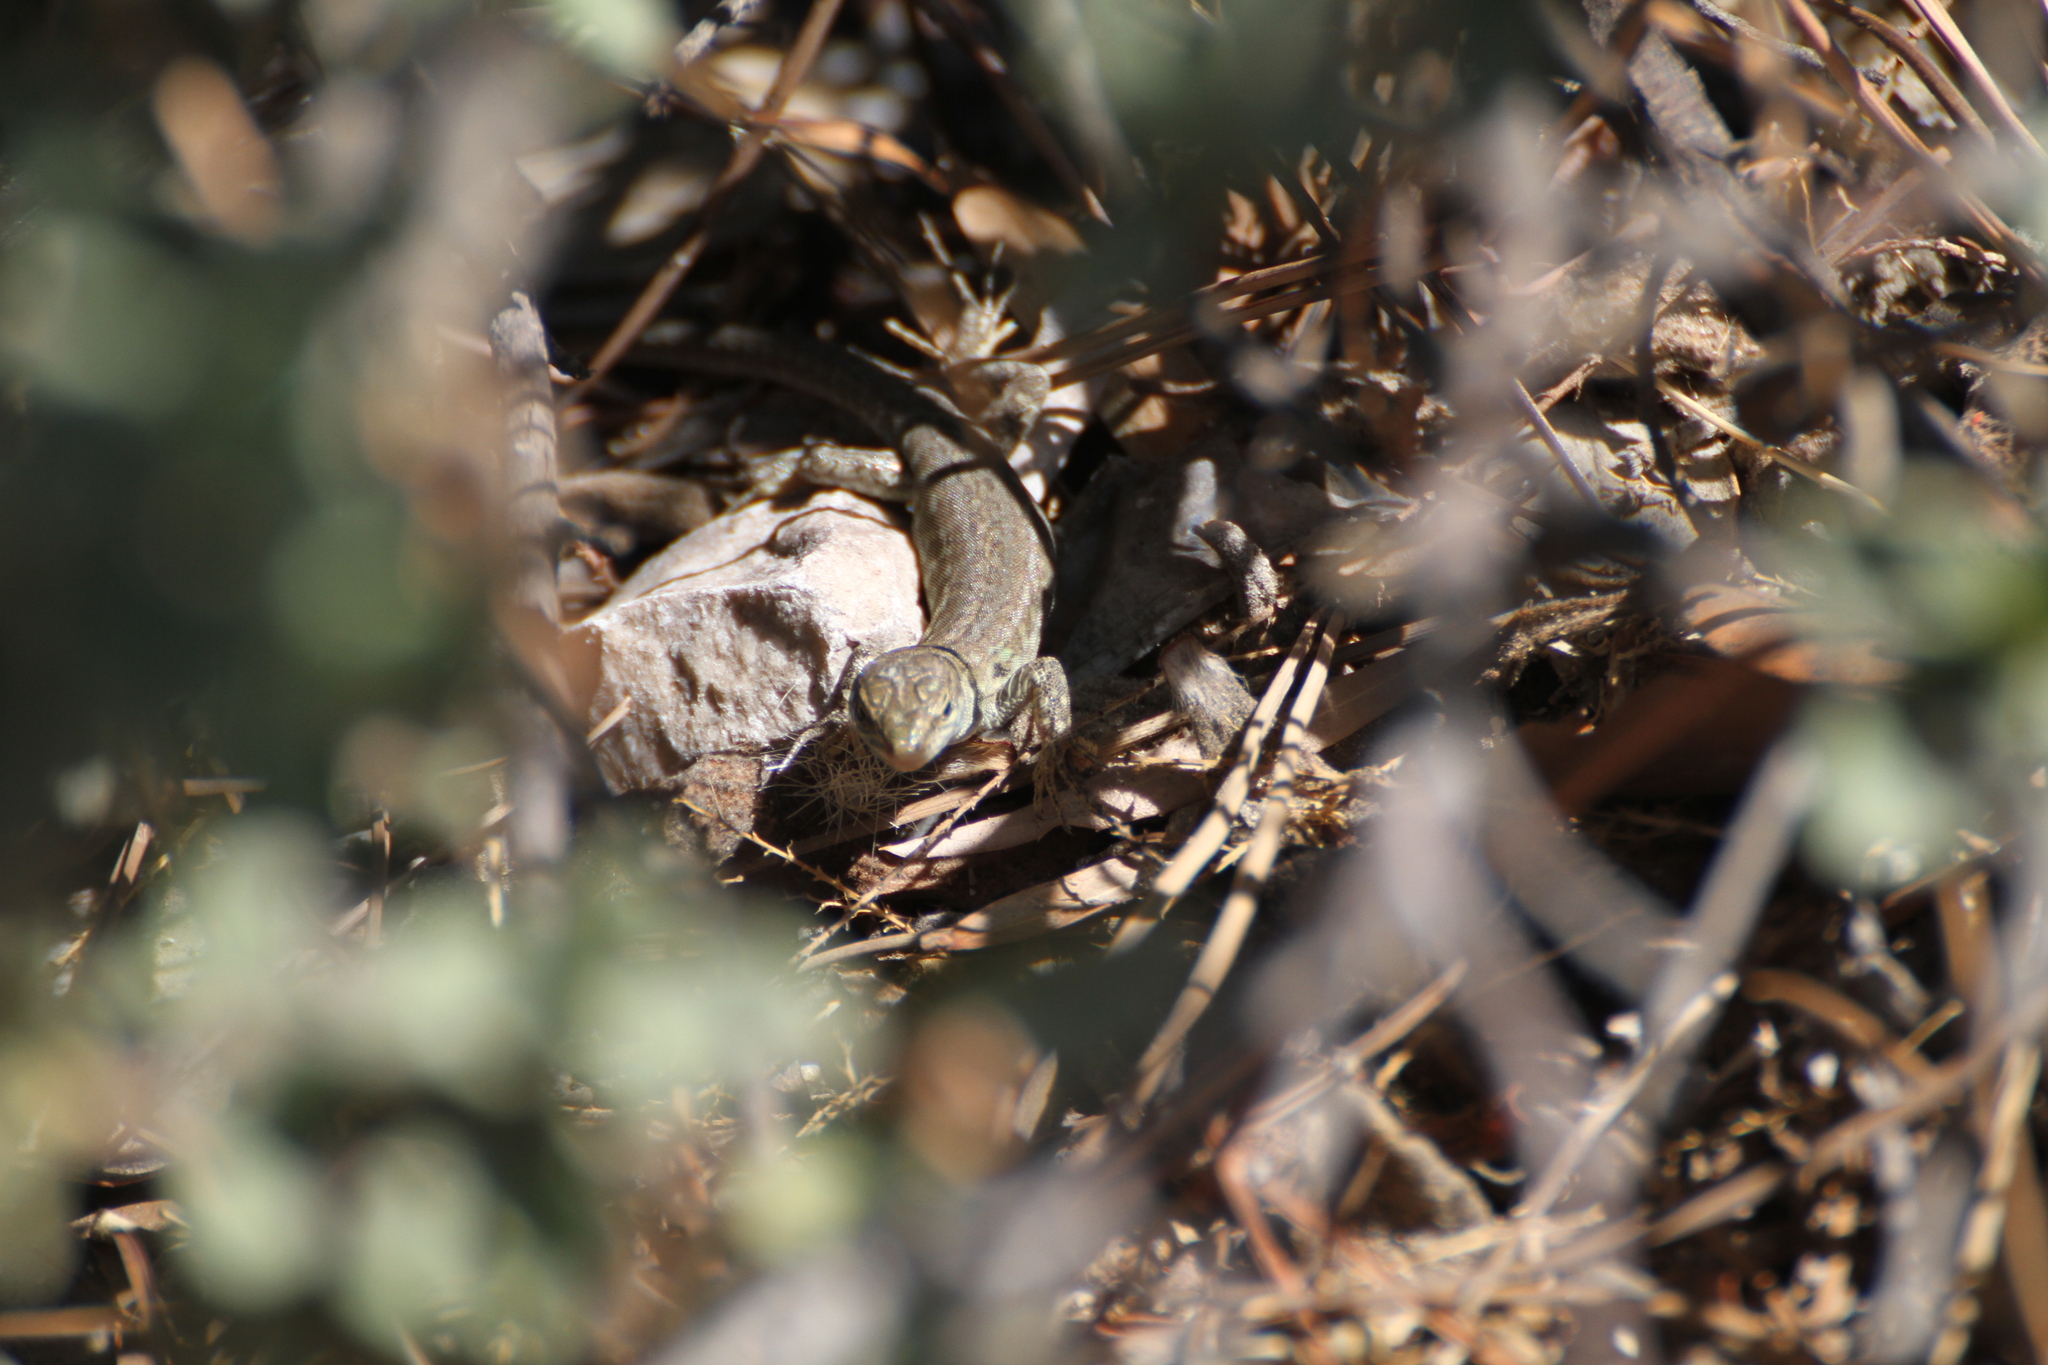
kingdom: Animalia
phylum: Chordata
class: Squamata
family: Lacertidae
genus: Podarcis
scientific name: Podarcis siculus
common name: Italian wall lizard
